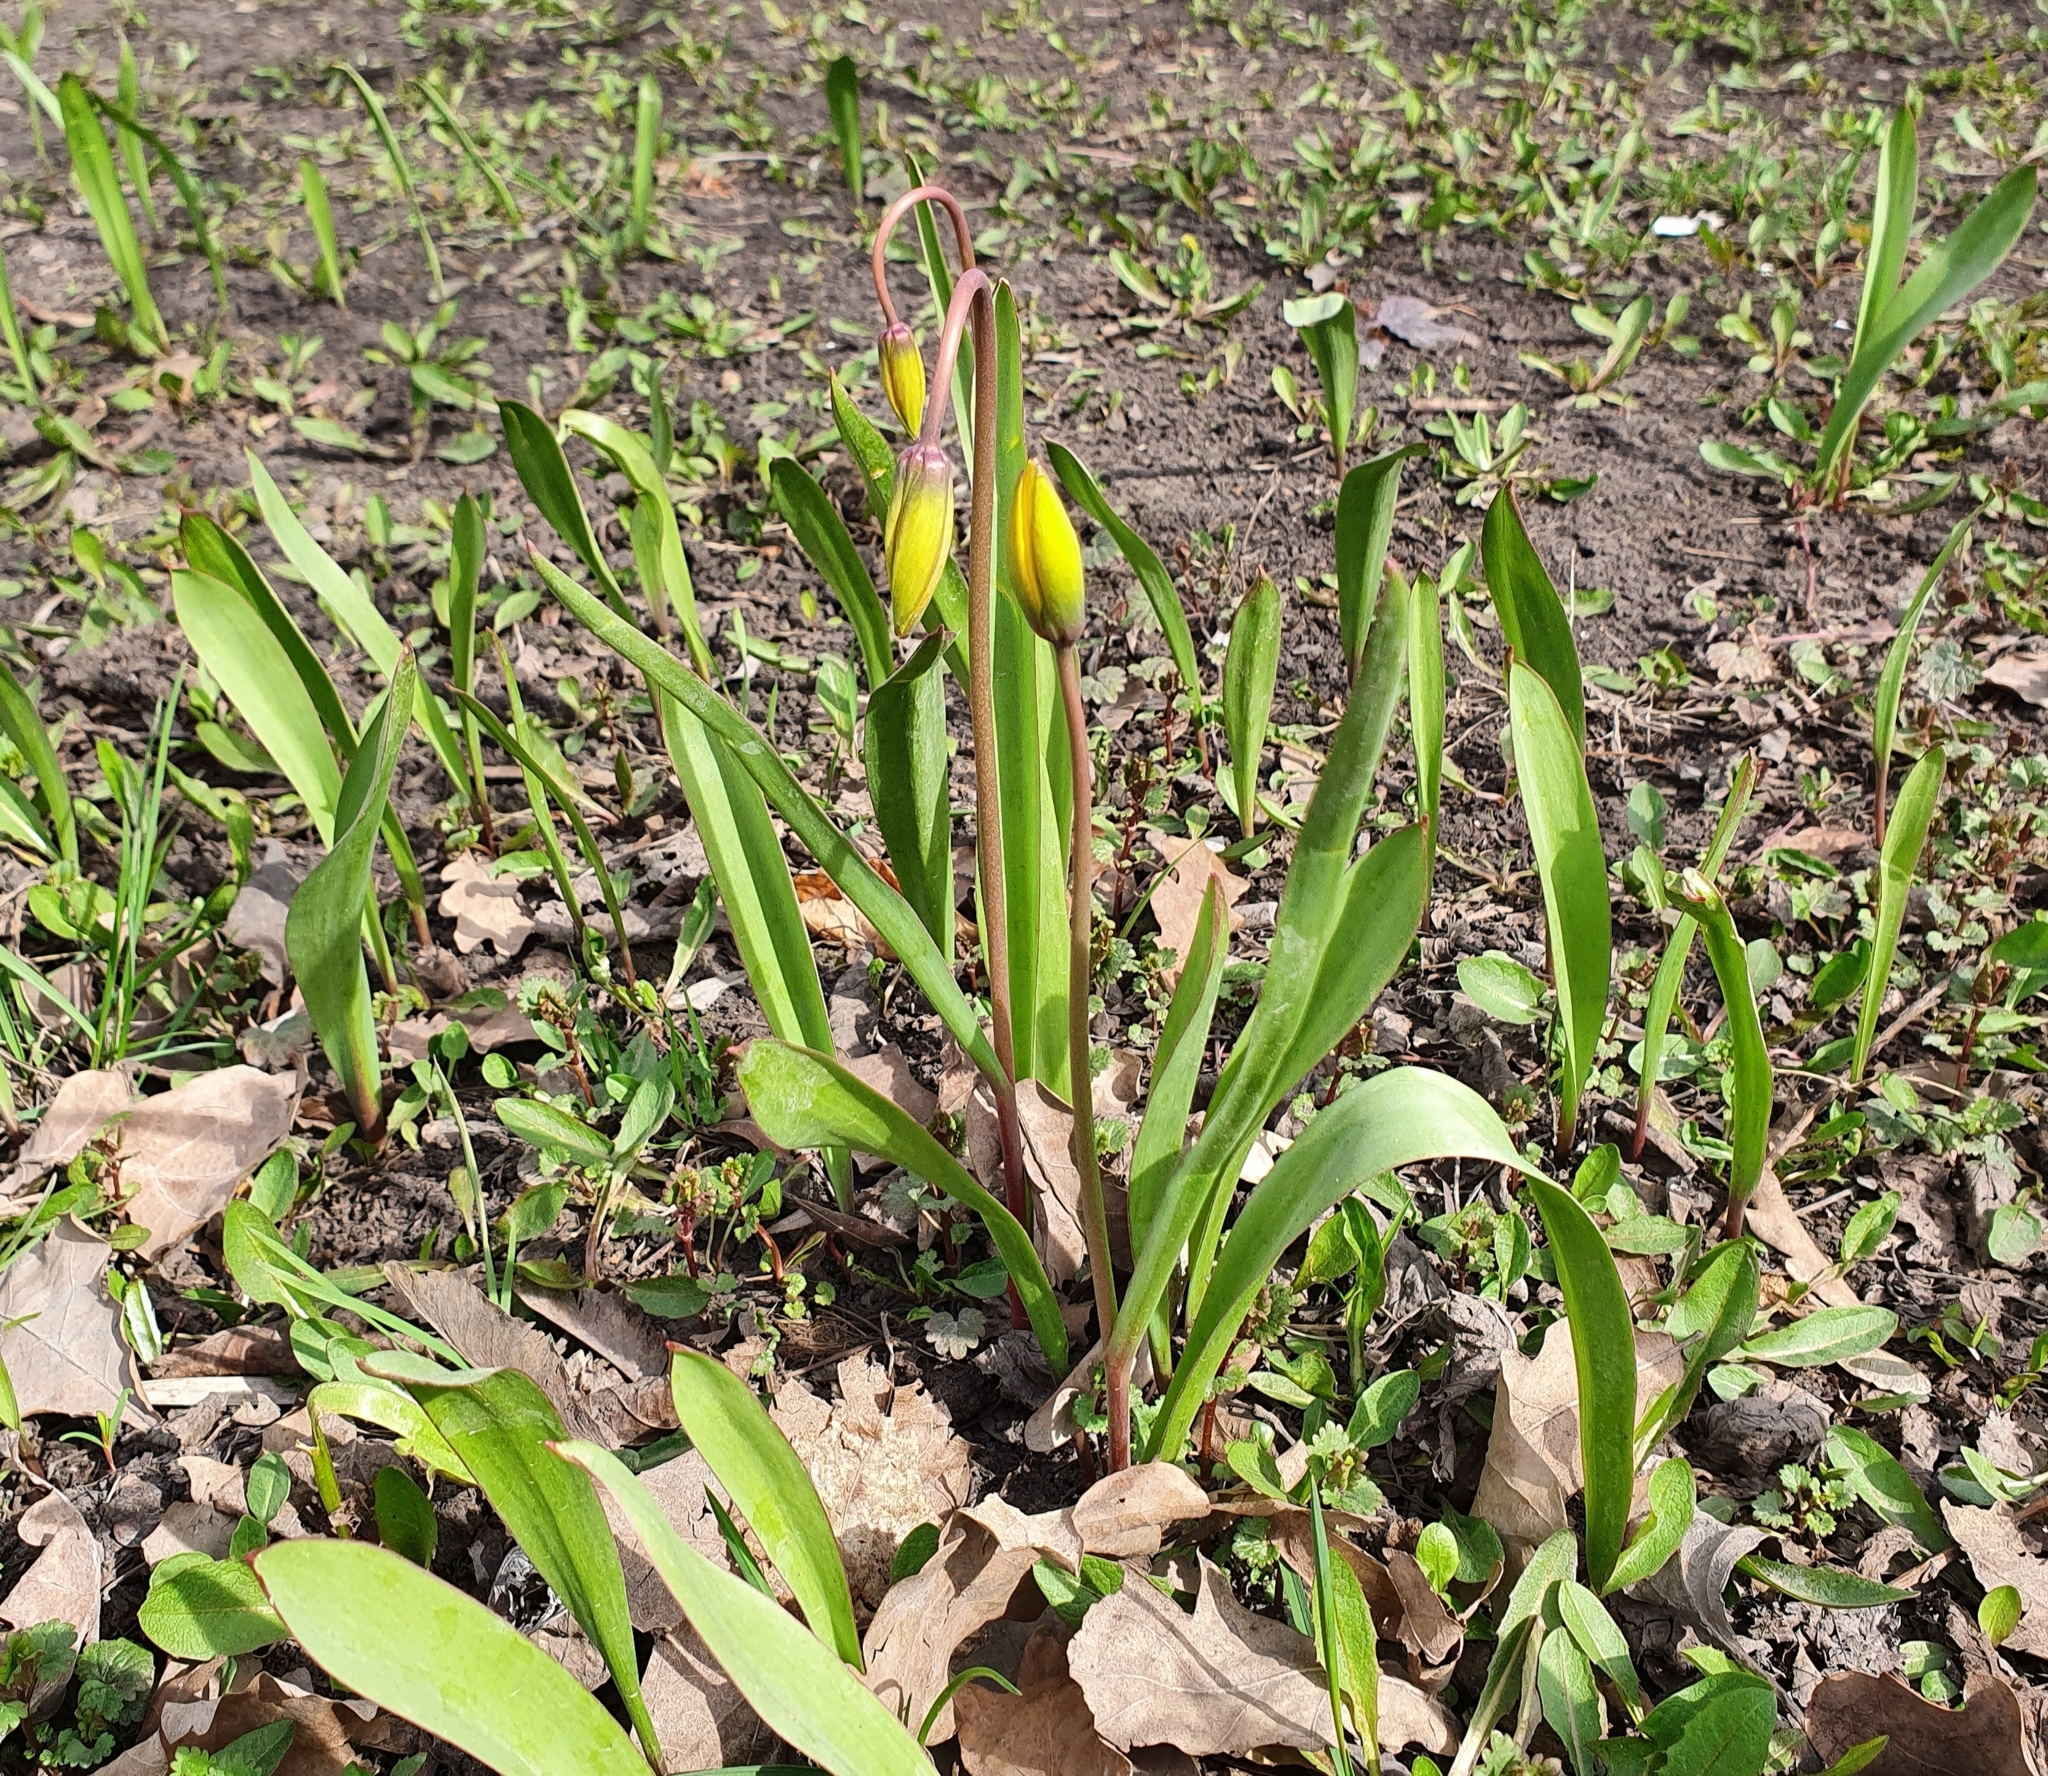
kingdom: Plantae
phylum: Tracheophyta
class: Liliopsida
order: Liliales
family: Liliaceae
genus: Tulipa
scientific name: Tulipa sylvestris
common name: Wild tulip
